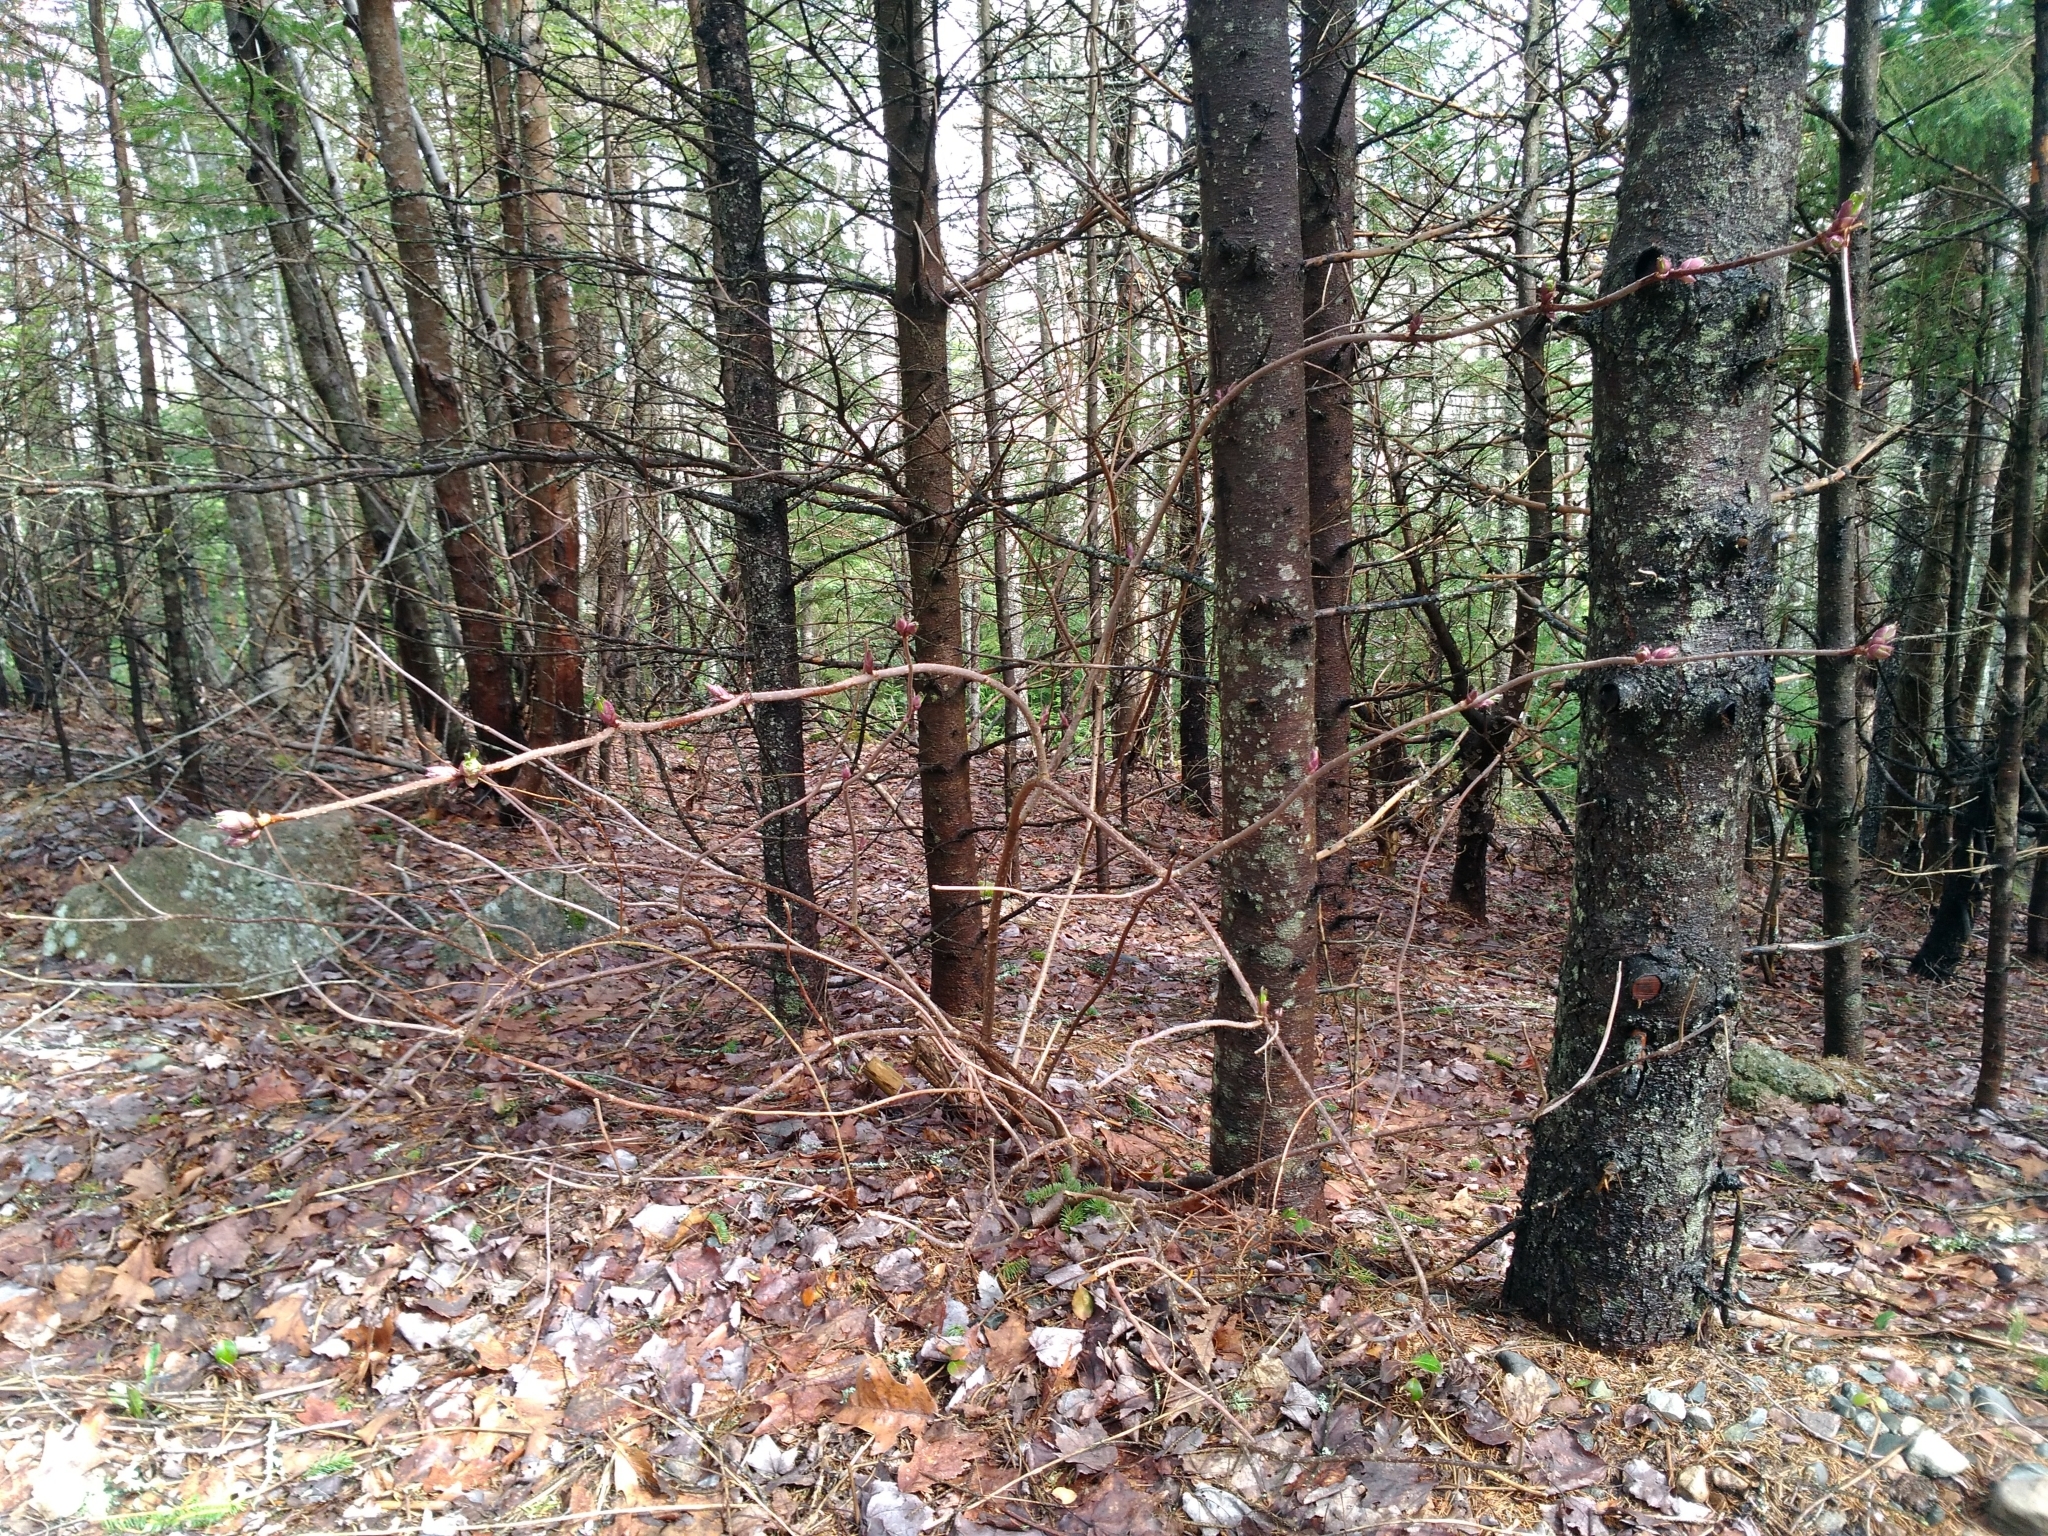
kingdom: Plantae
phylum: Tracheophyta
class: Magnoliopsida
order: Dipsacales
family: Viburnaceae
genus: Sambucus
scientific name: Sambucus racemosa
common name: Red-berried elder
